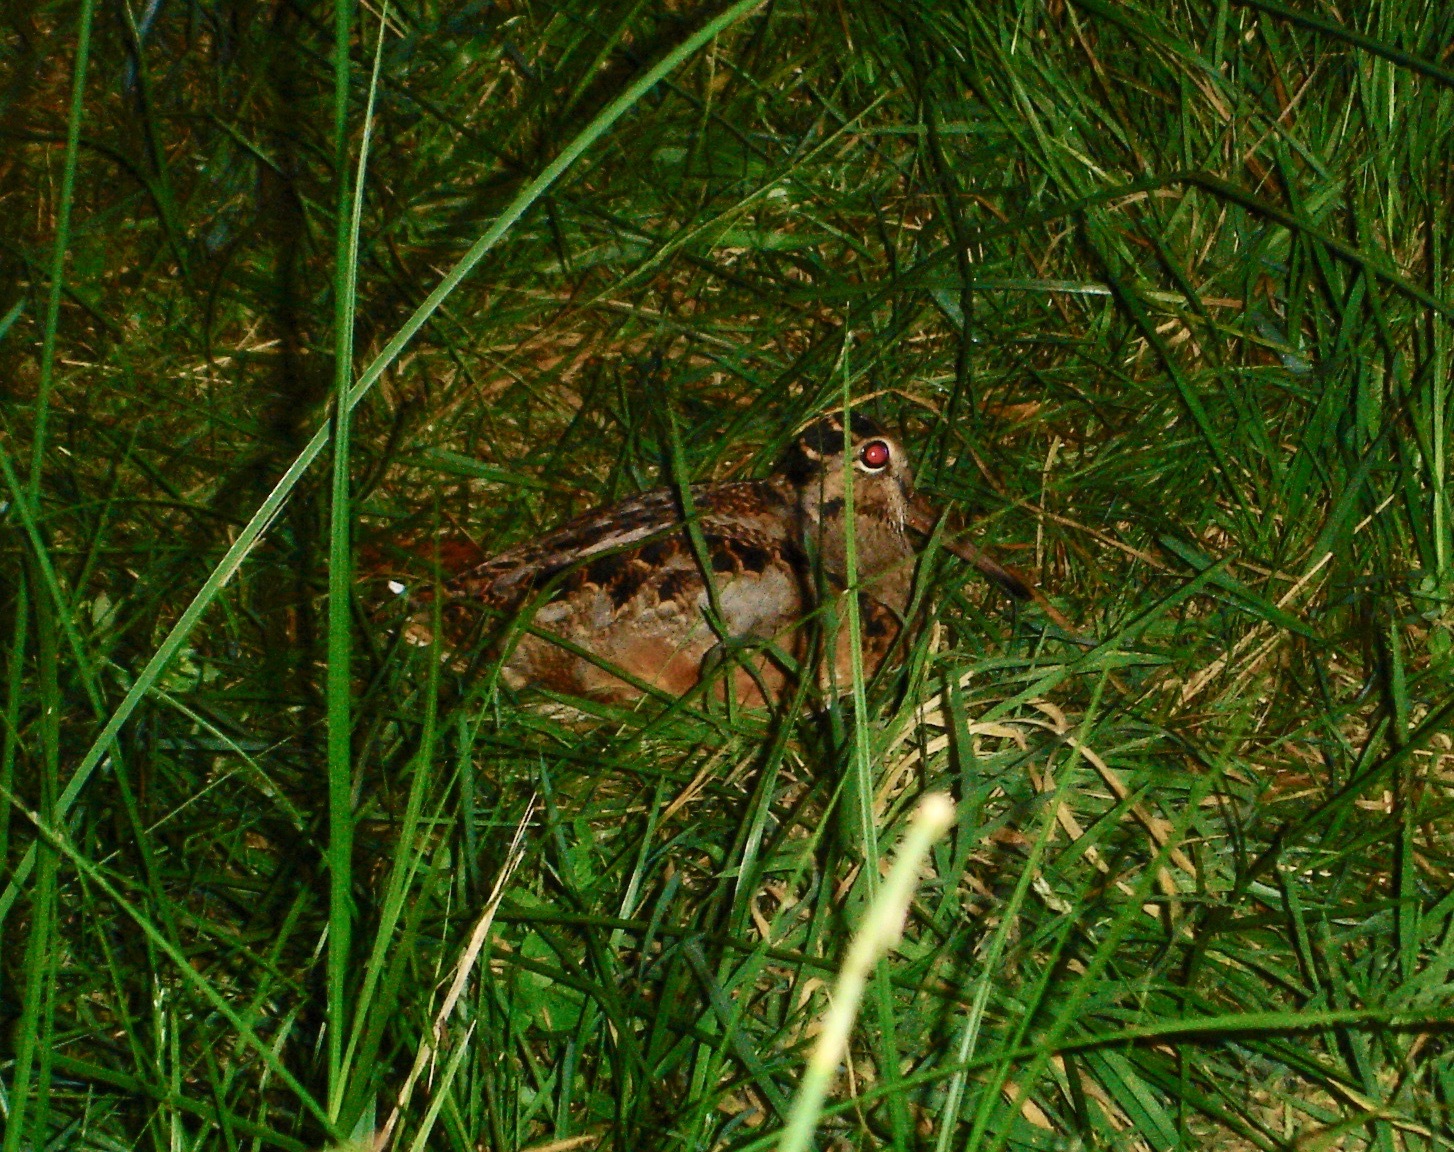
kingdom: Animalia
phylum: Chordata
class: Aves
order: Charadriiformes
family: Scolopacidae
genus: Scolopax
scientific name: Scolopax minor
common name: American woodcock
